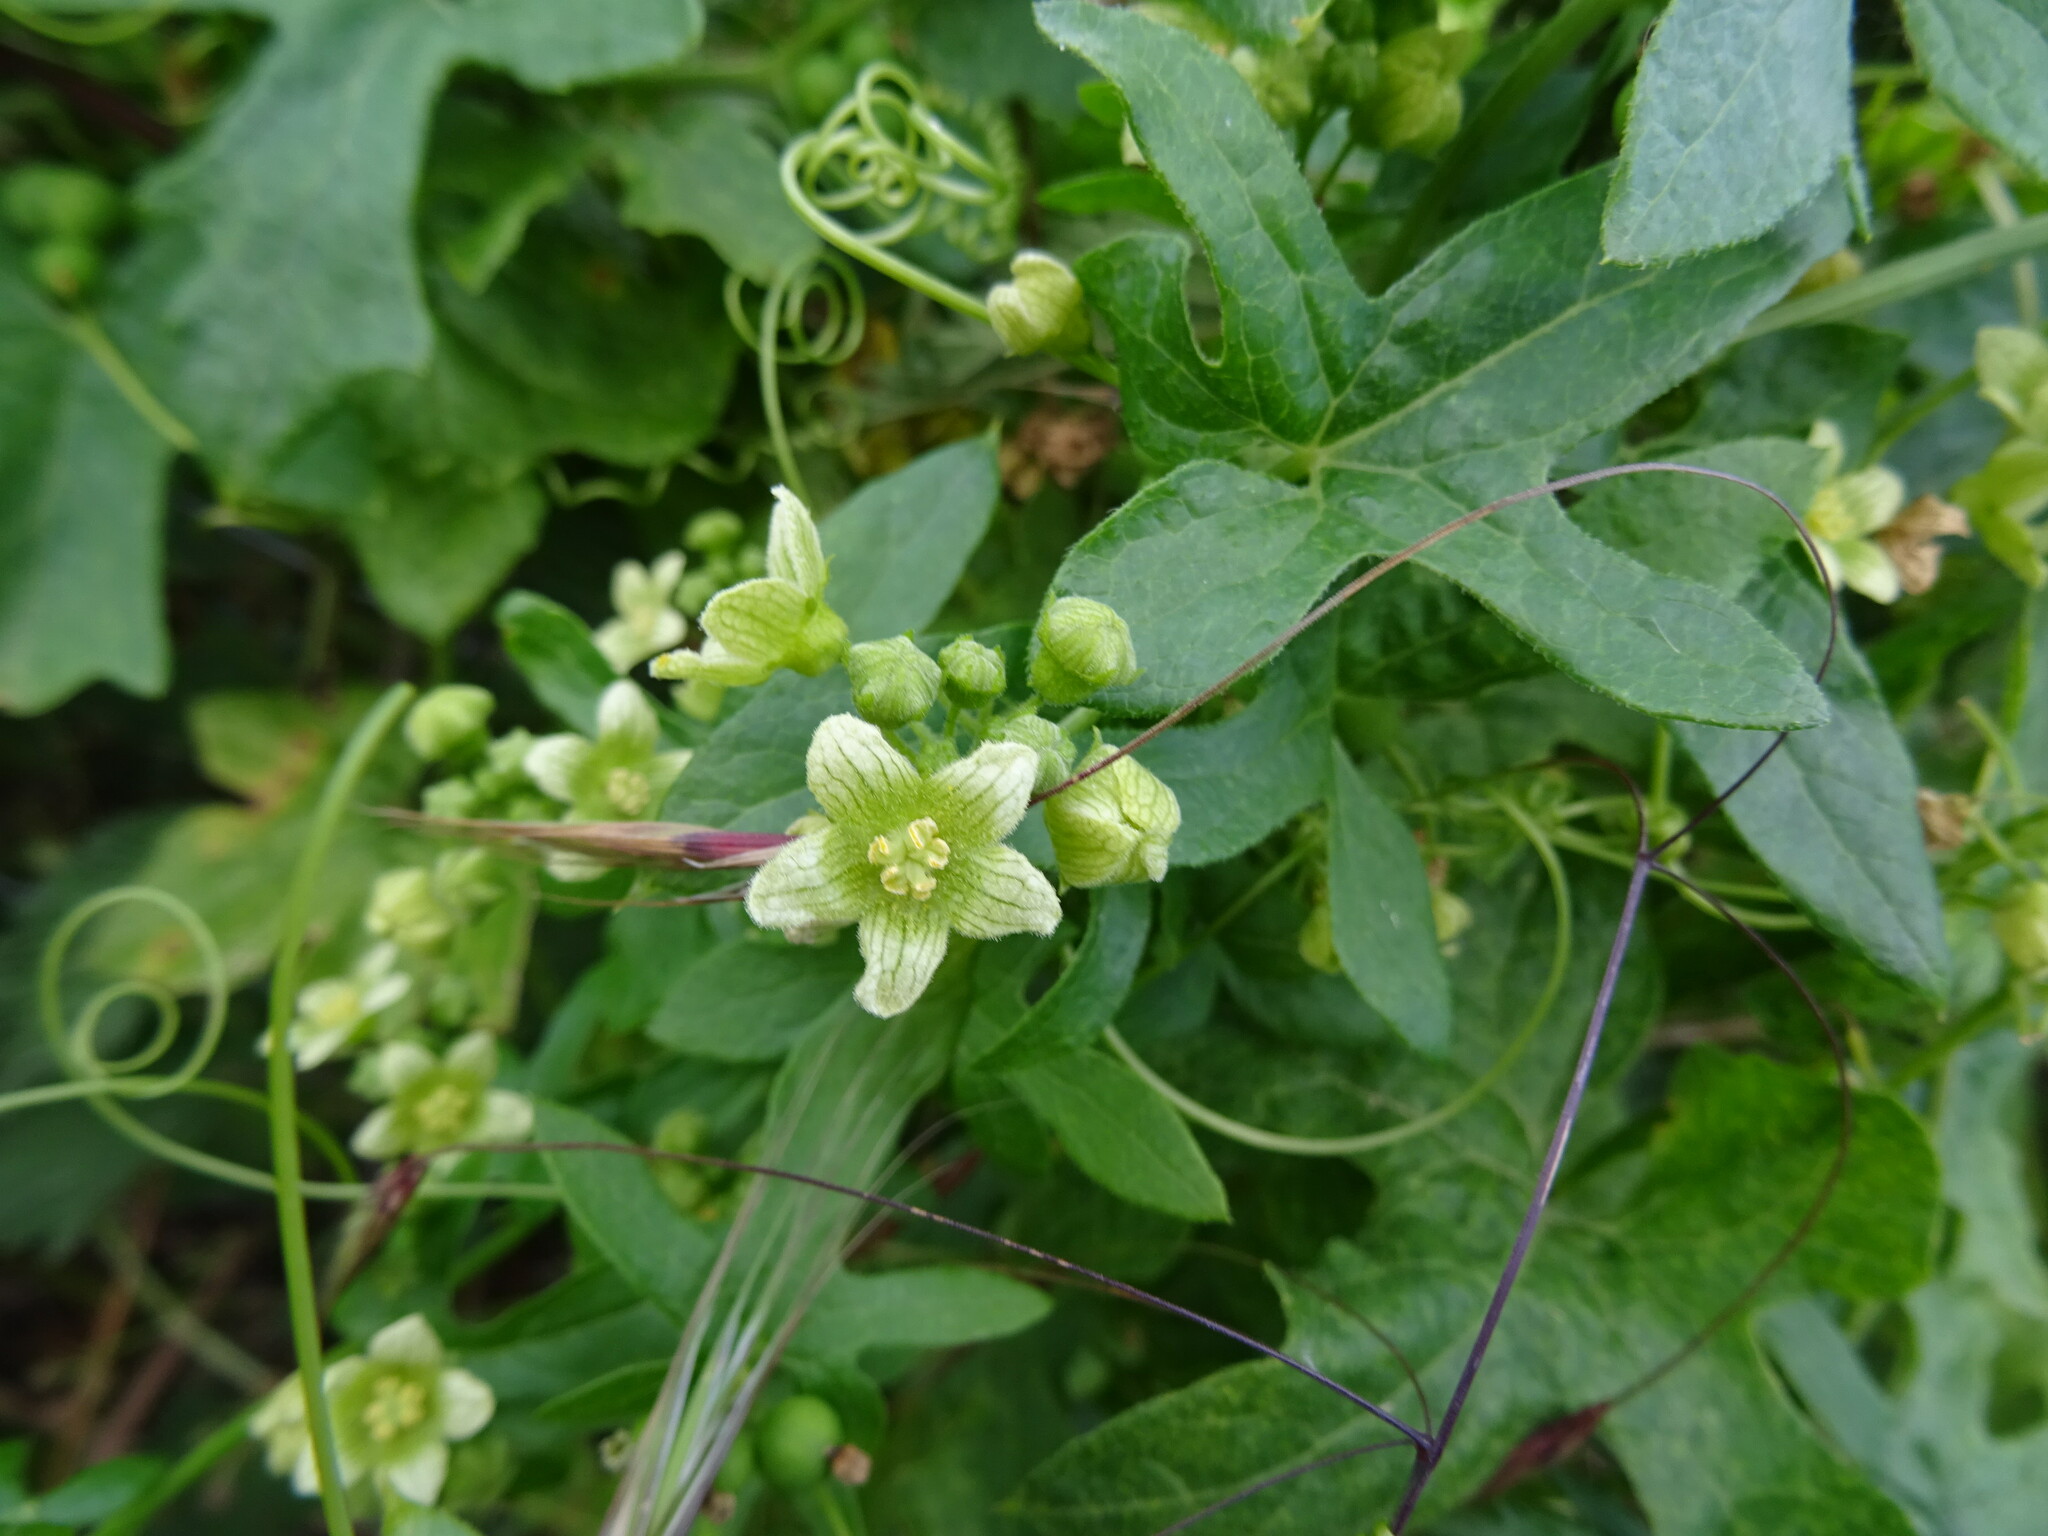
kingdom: Plantae
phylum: Tracheophyta
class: Magnoliopsida
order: Cucurbitales
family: Cucurbitaceae
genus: Bryonia
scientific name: Bryonia cretica
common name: Cretan bryony
